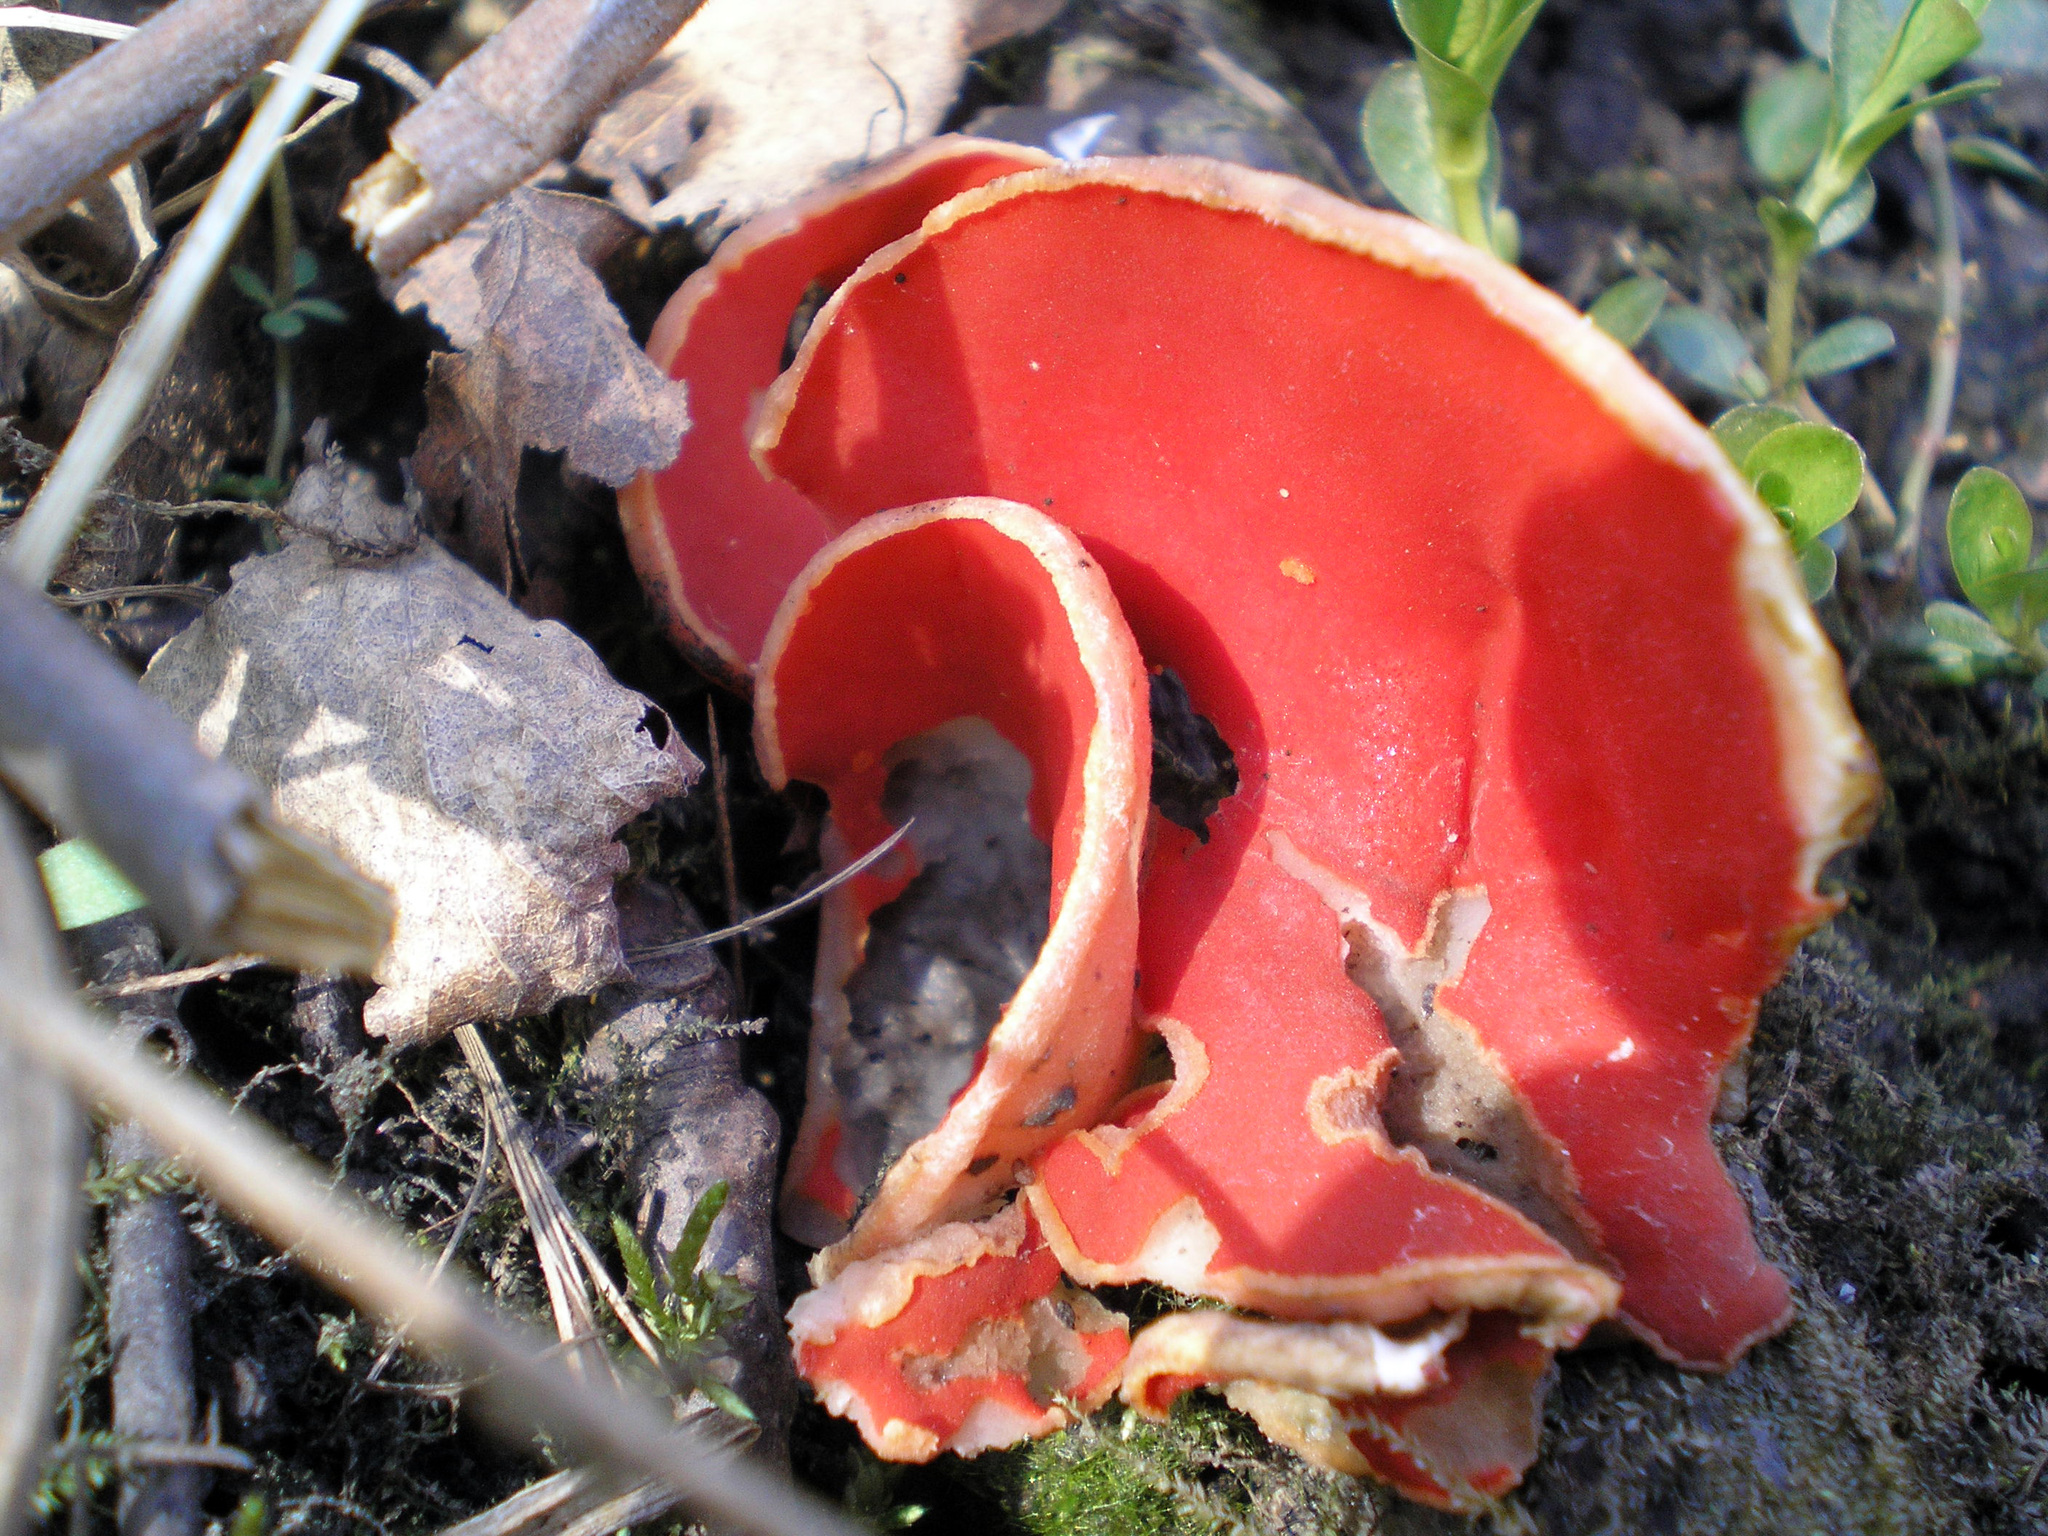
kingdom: Fungi
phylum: Ascomycota
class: Pezizomycetes
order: Pezizales
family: Sarcoscyphaceae
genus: Sarcoscypha
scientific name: Sarcoscypha
